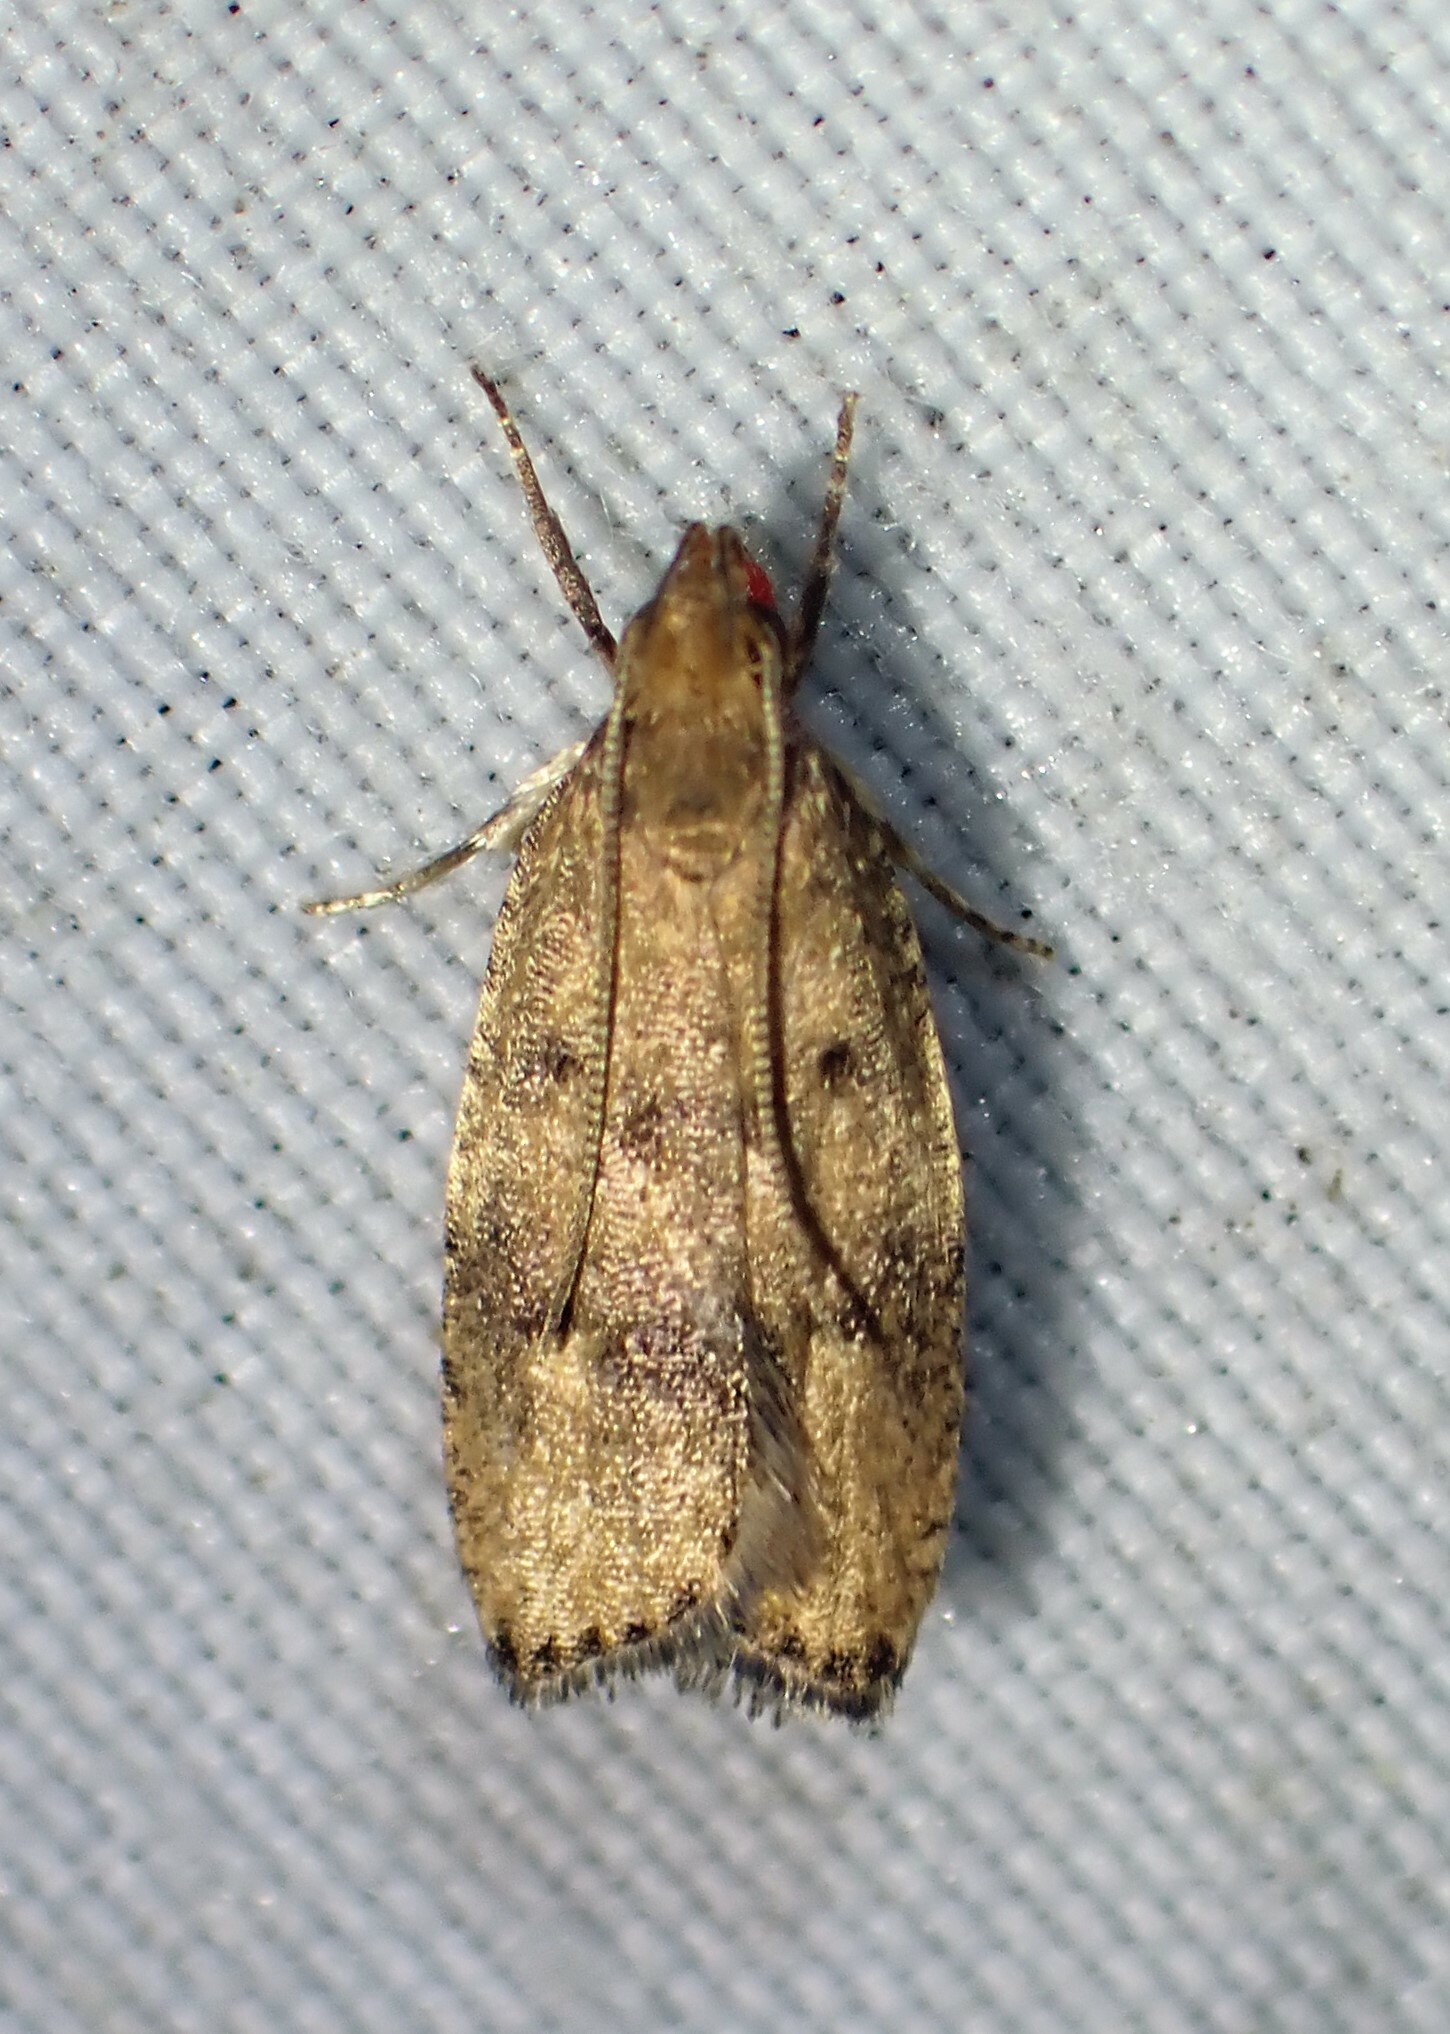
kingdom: Animalia
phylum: Arthropoda
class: Insecta
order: Lepidoptera
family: Depressariidae
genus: Psilocorsis
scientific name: Psilocorsis quercicella
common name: Oak leaftier moth
